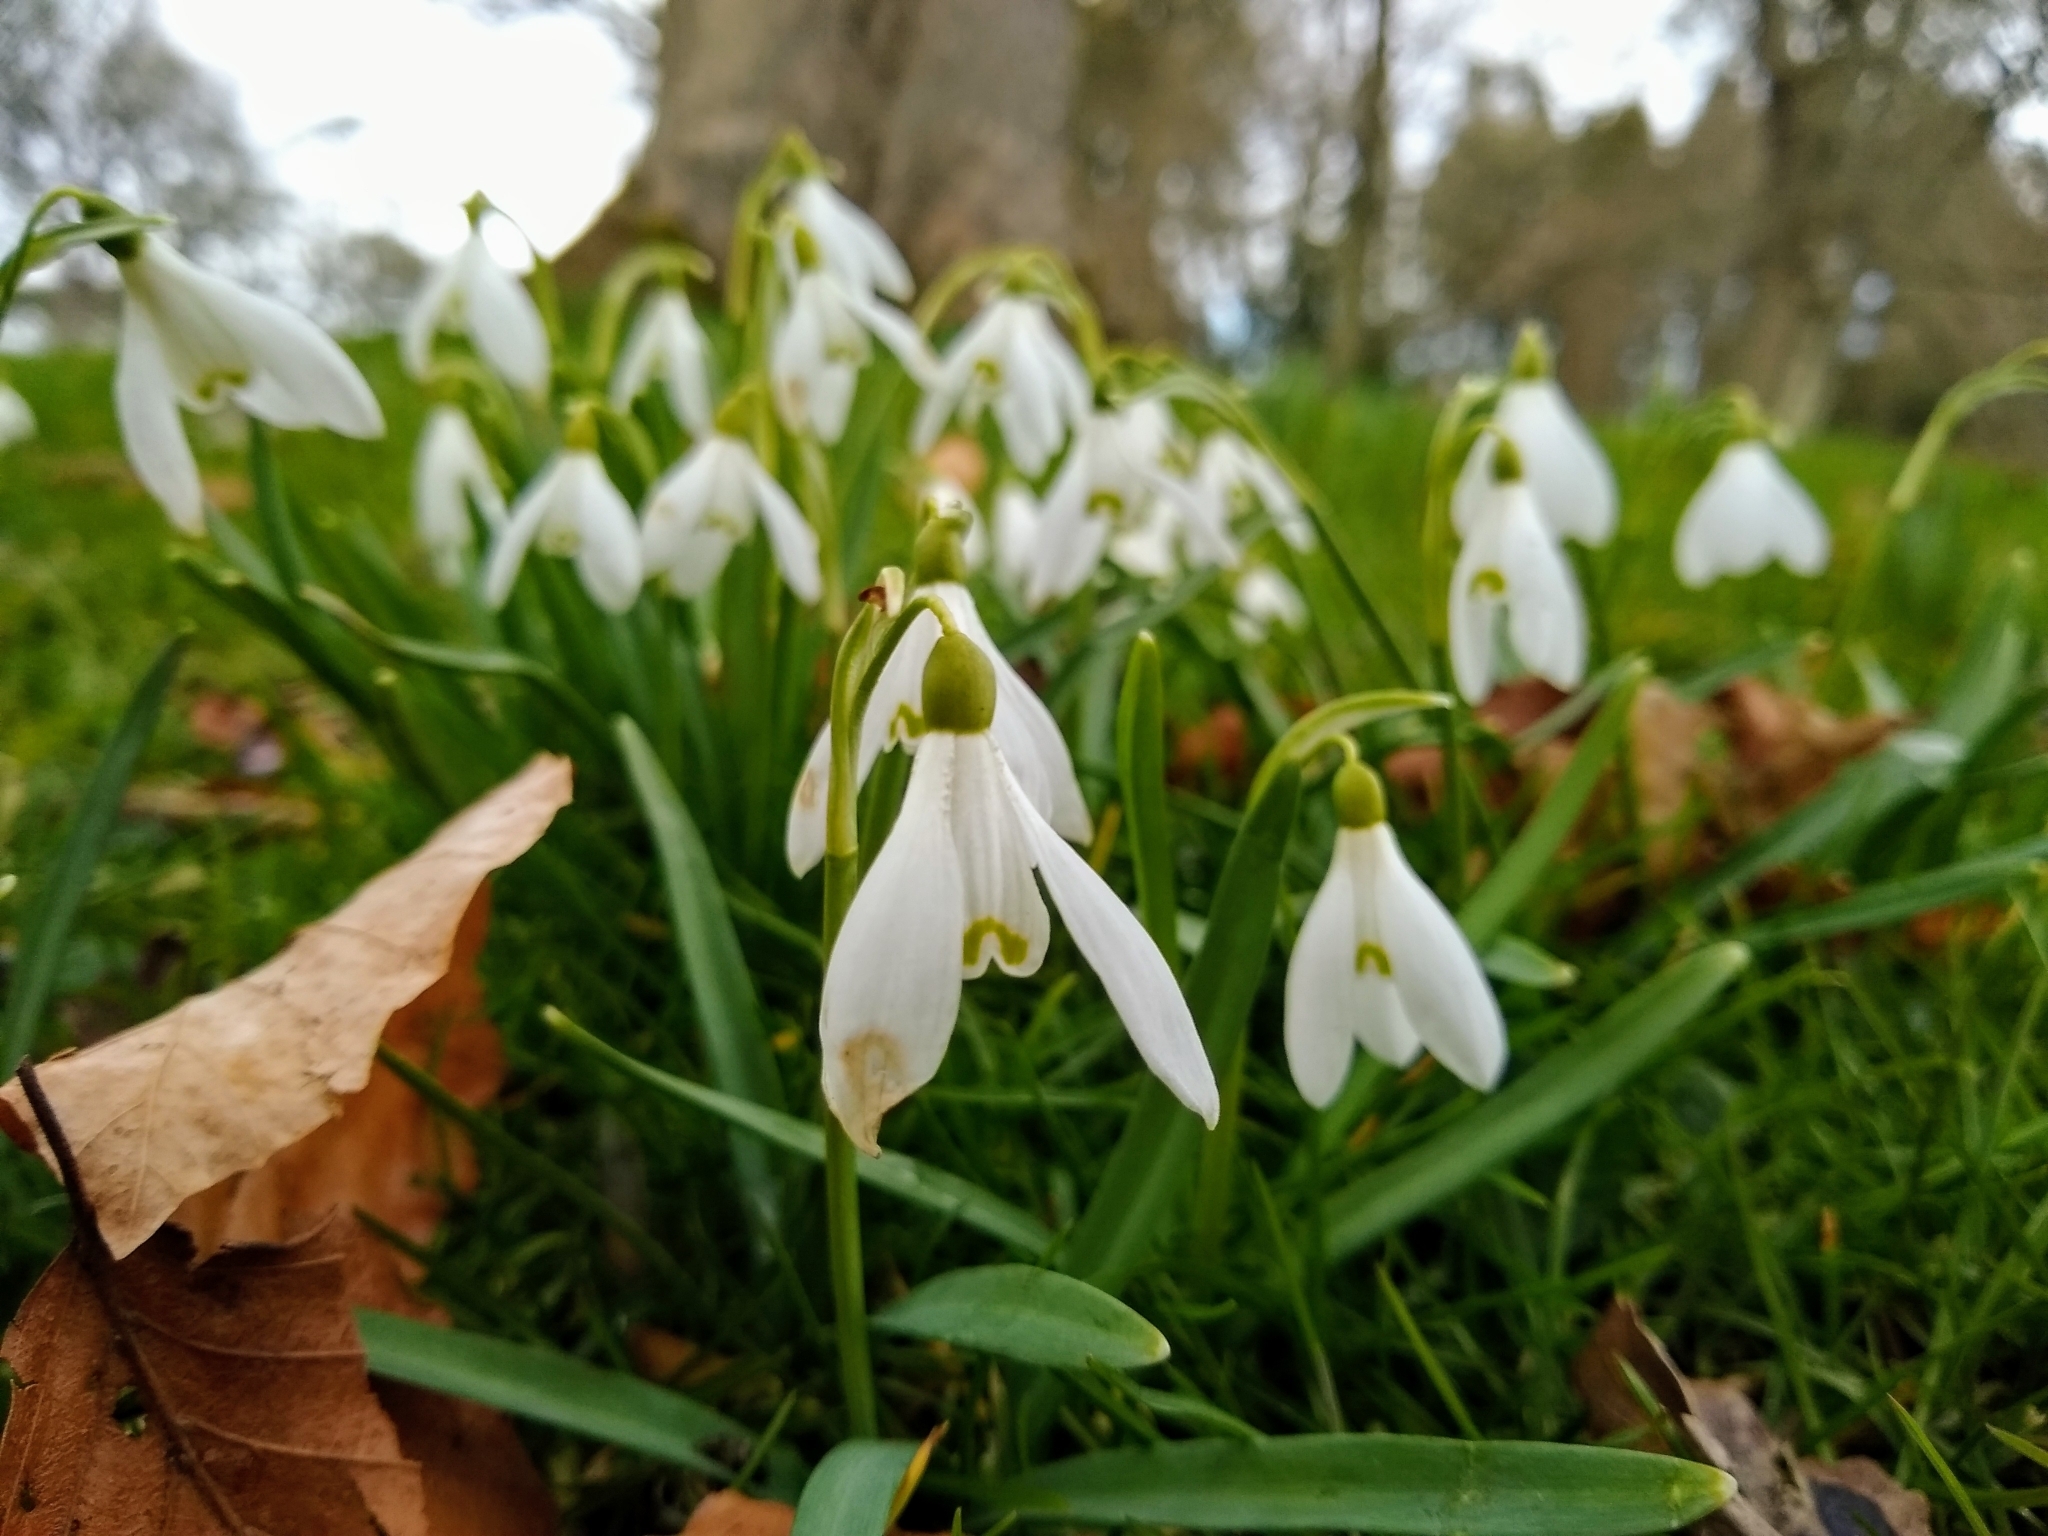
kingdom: Plantae
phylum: Tracheophyta
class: Liliopsida
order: Asparagales
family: Amaryllidaceae
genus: Galanthus
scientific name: Galanthus nivalis
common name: Snowdrop
